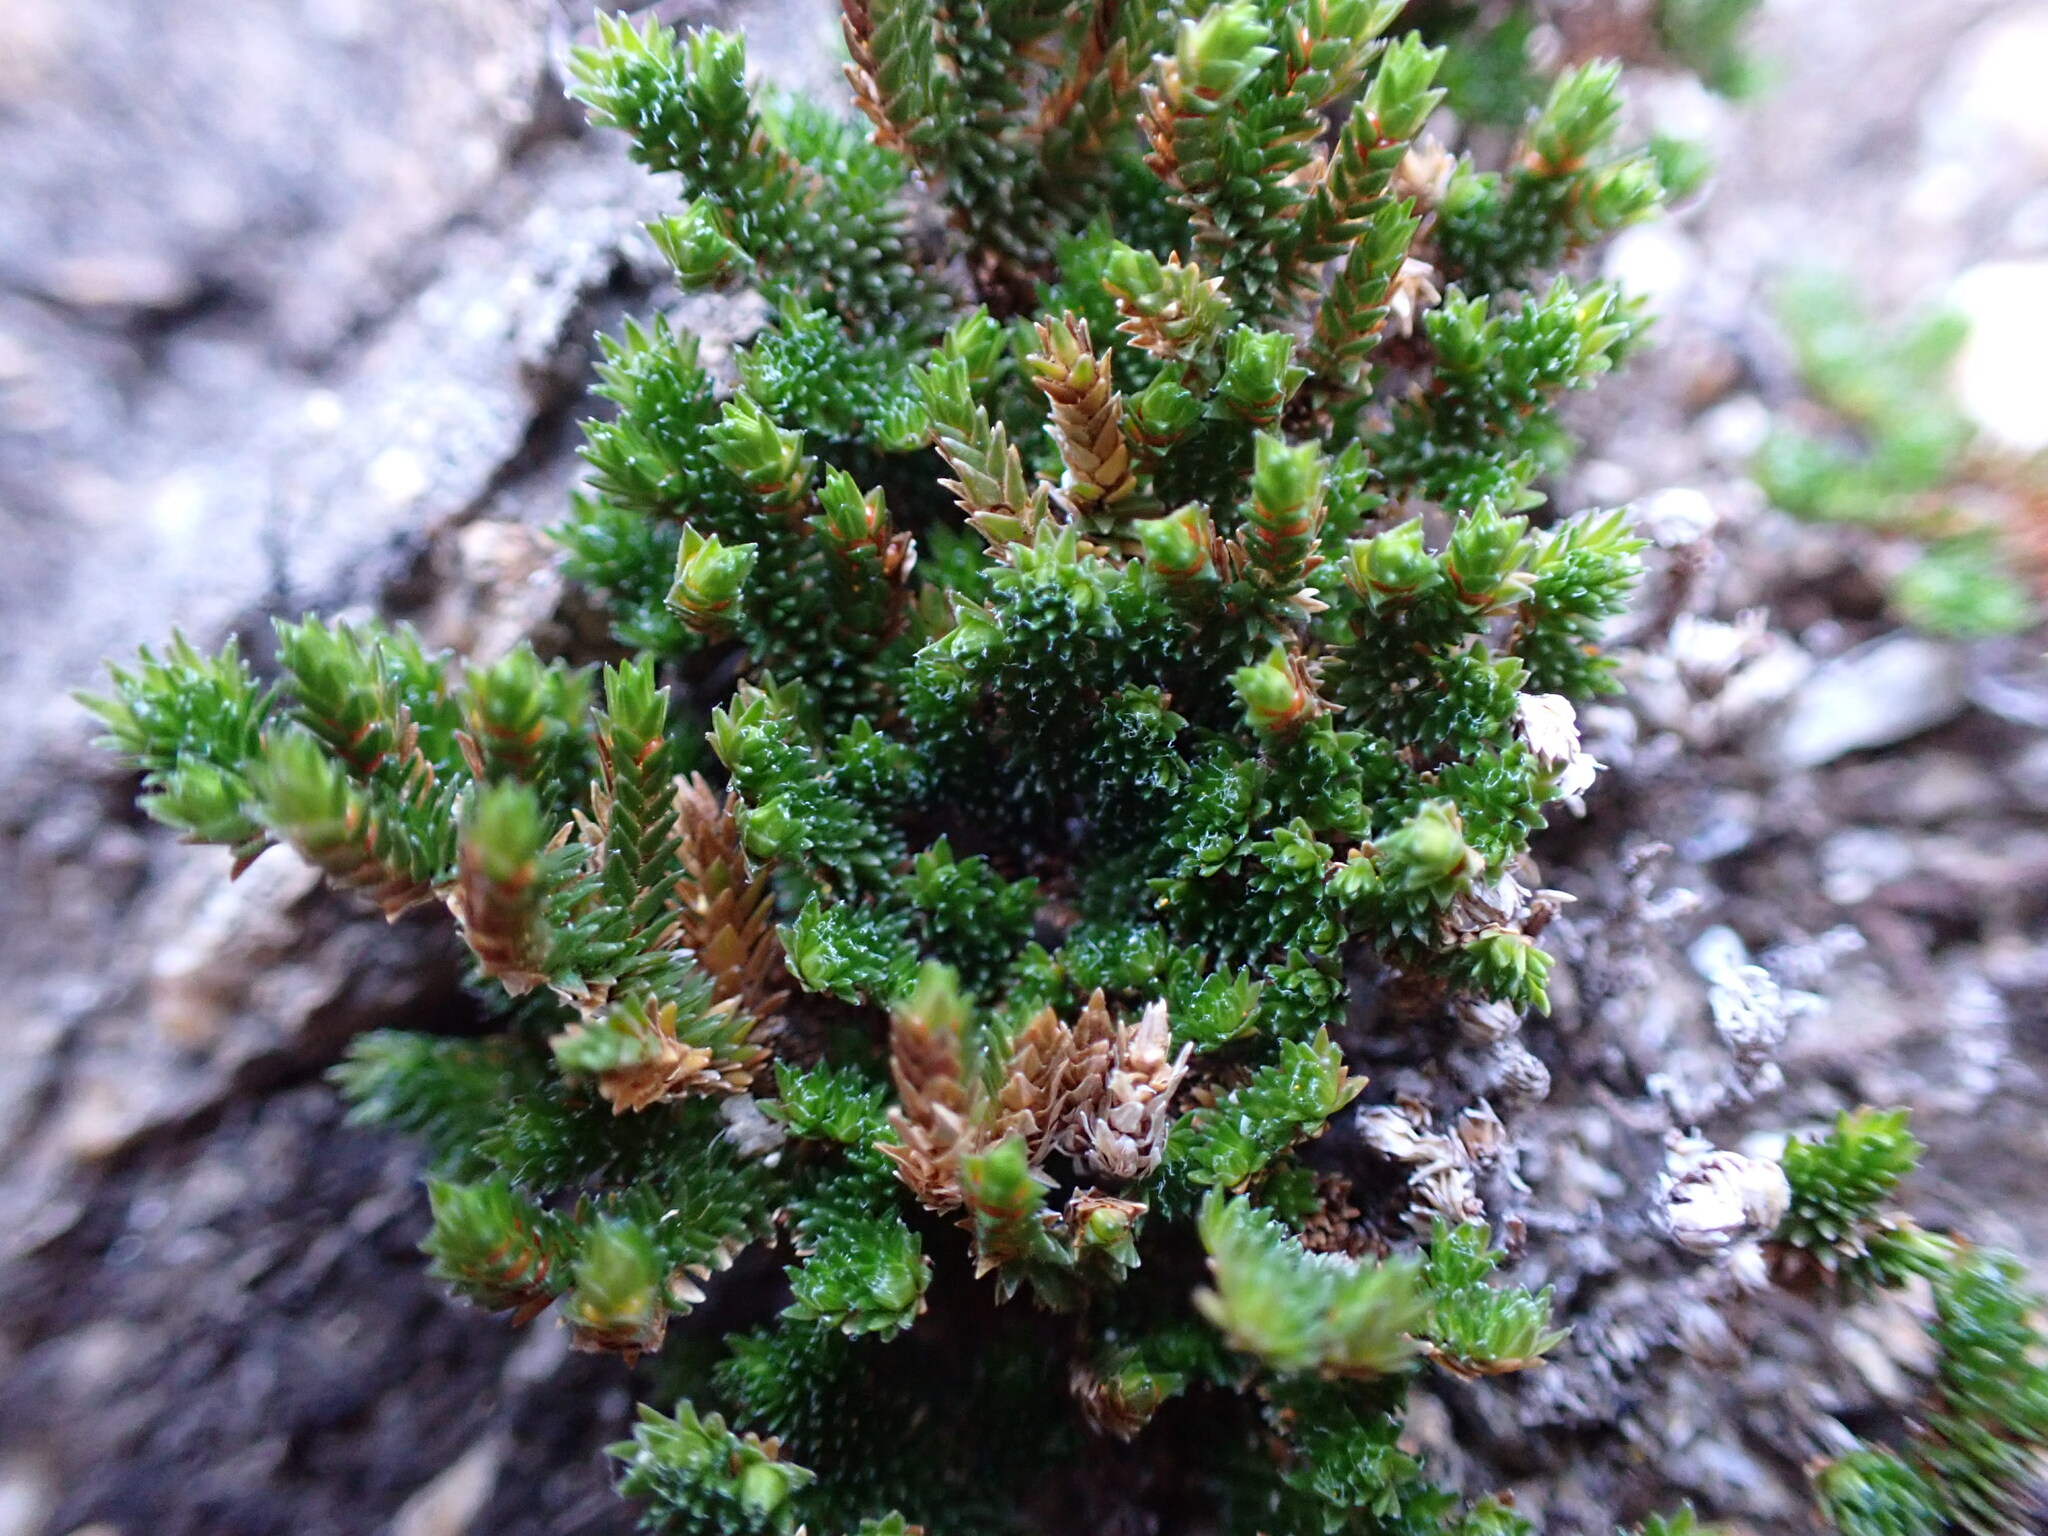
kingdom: Plantae
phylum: Tracheophyta
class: Lycopodiopsida
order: Selaginellales
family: Selaginellaceae
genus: Selaginella
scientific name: Selaginella eremophila
